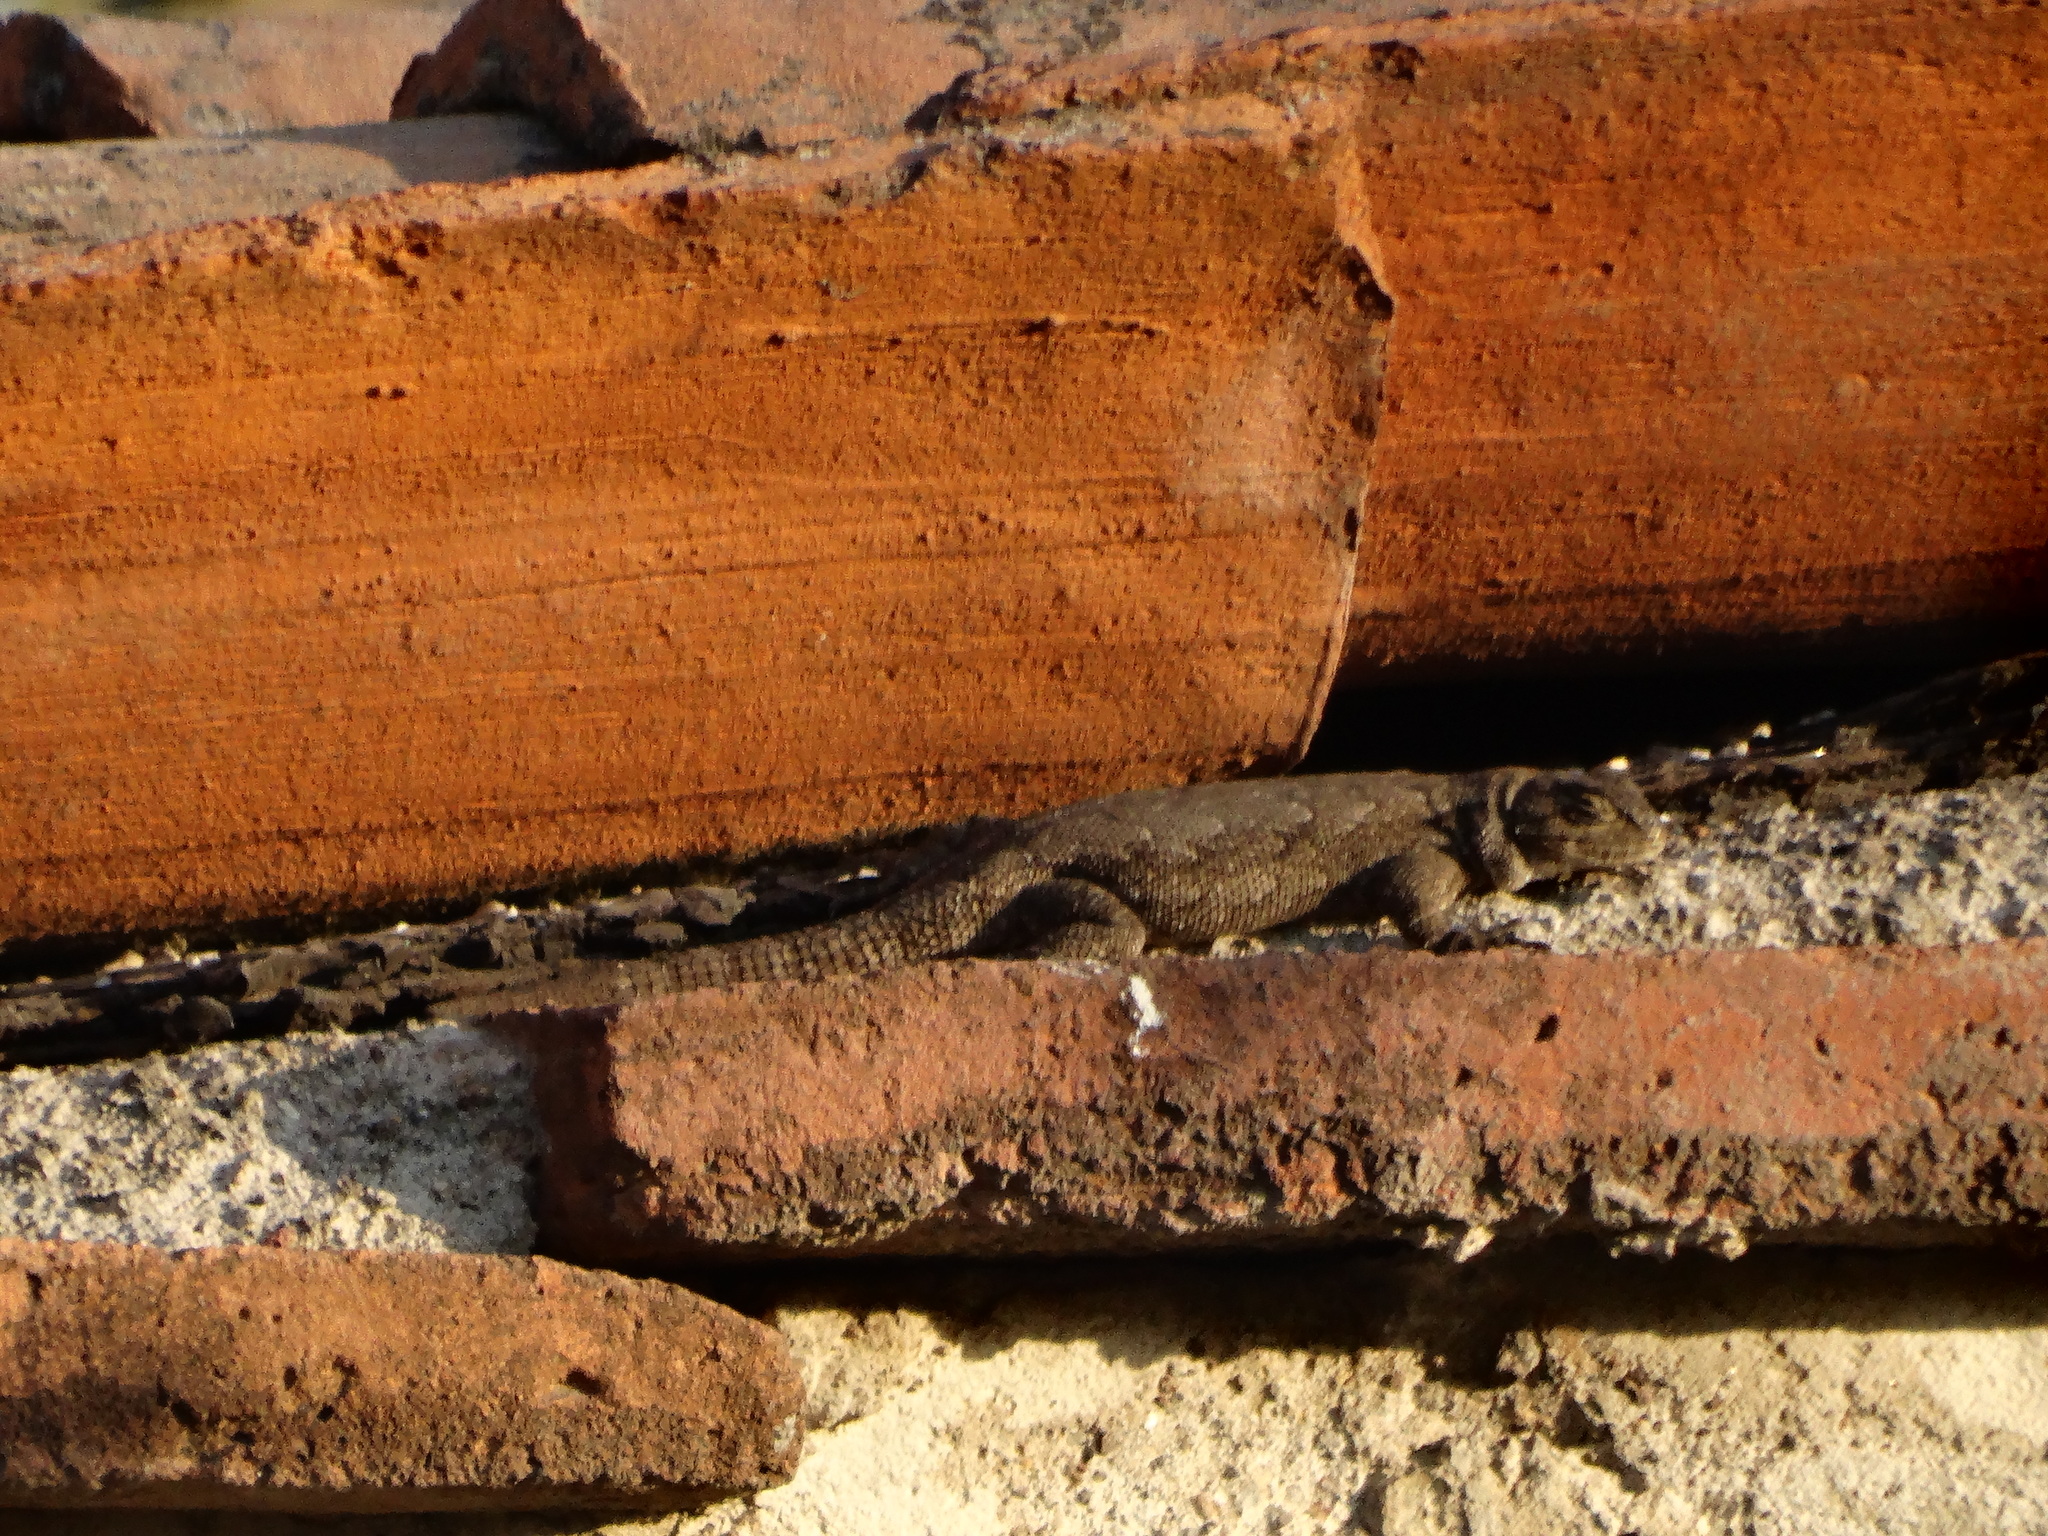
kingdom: Animalia
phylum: Chordata
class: Squamata
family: Phrynosomatidae
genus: Sceloporus
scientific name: Sceloporus grammicus
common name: Mesquite lizard
